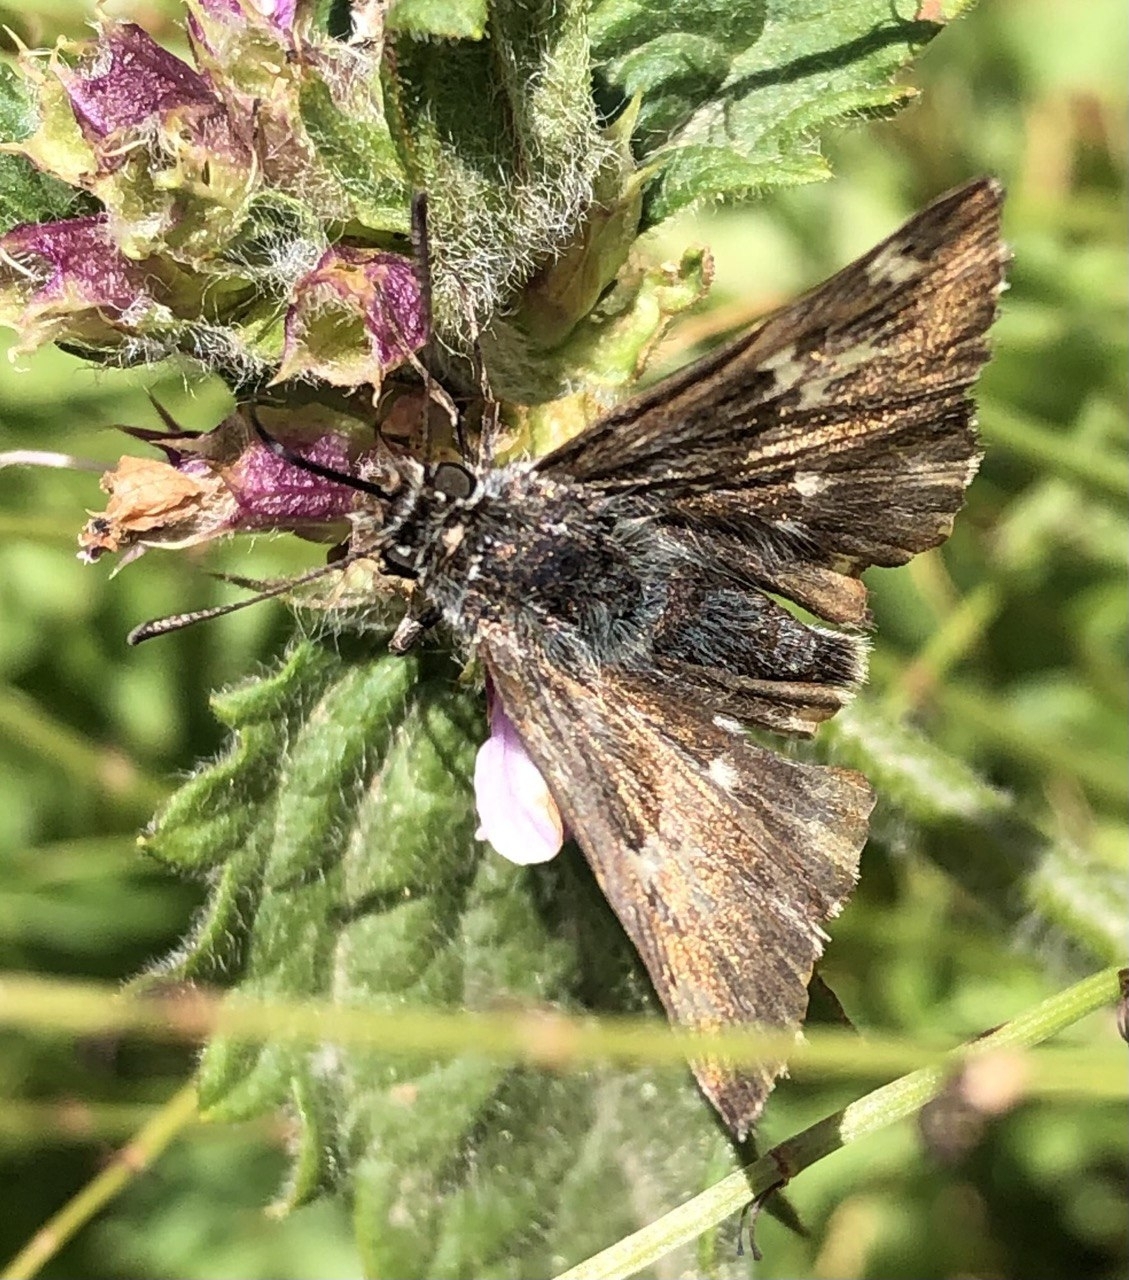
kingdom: Animalia
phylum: Arthropoda
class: Insecta
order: Lepidoptera
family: Hesperiidae
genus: Carcharodus
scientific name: Carcharodus floccifera
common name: Tufted marbled skipper
